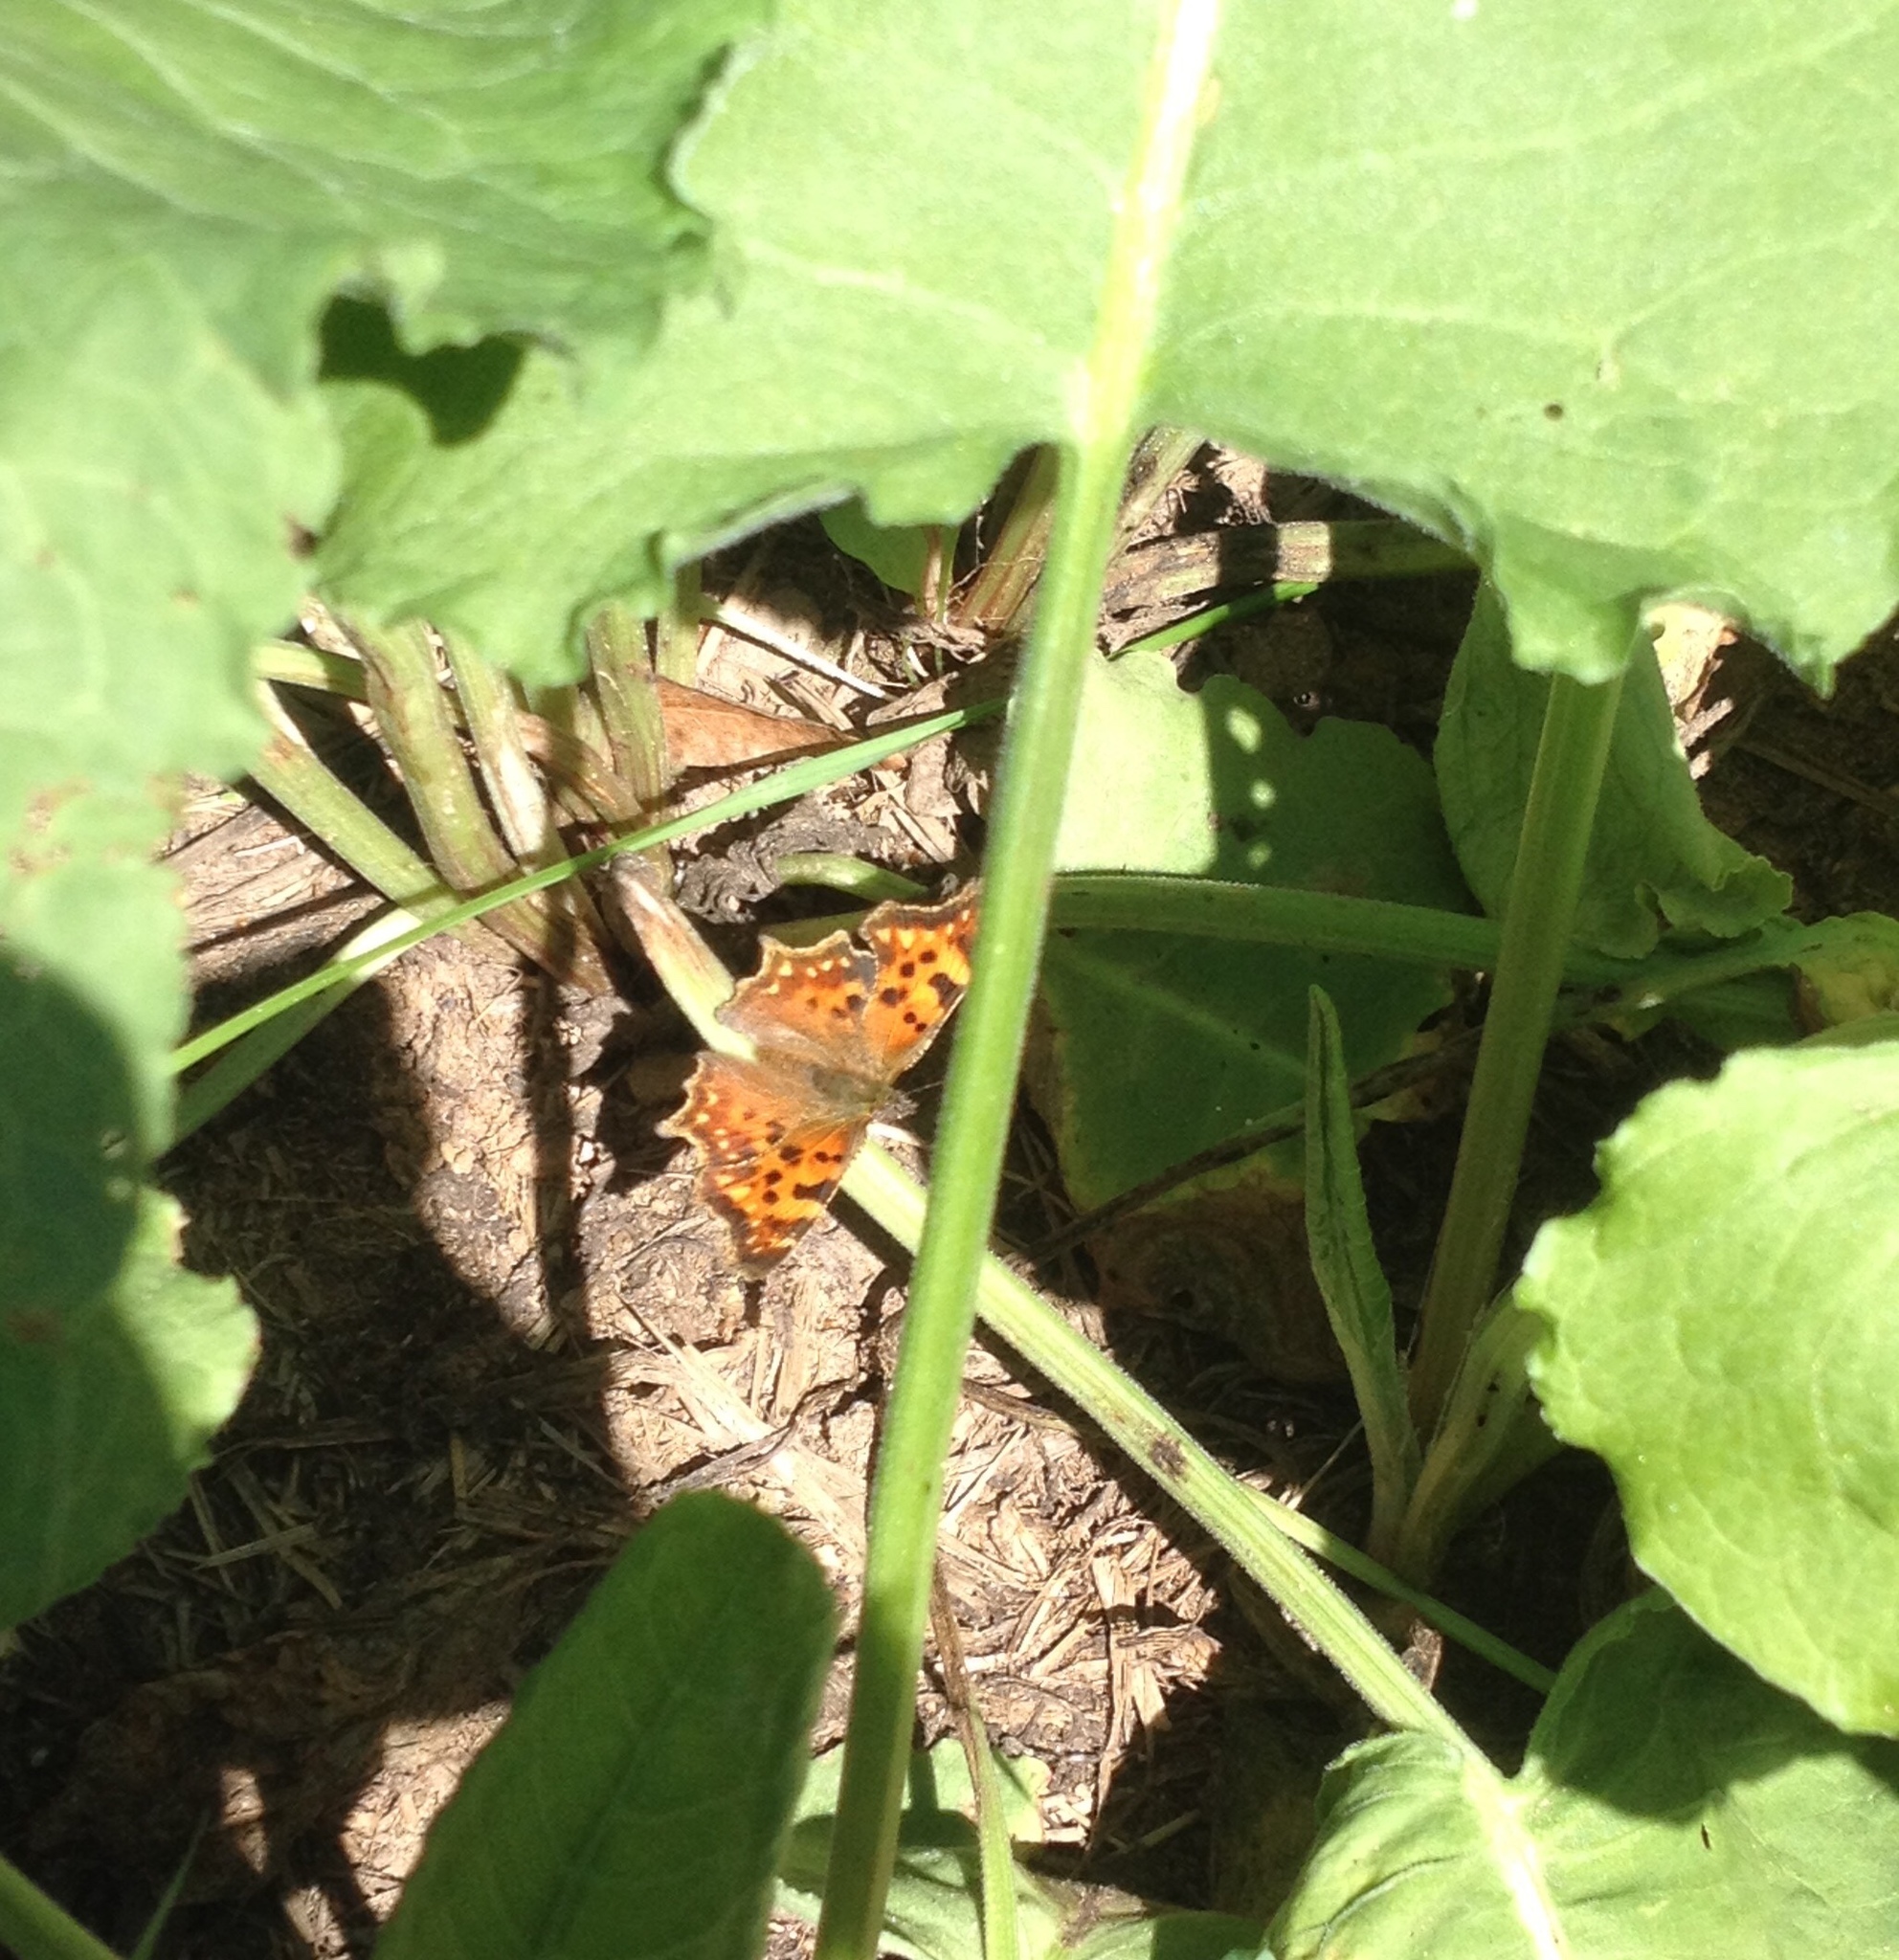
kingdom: Animalia
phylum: Arthropoda
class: Insecta
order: Lepidoptera
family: Nymphalidae
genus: Polygonia
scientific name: Polygonia c-album
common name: Comma
